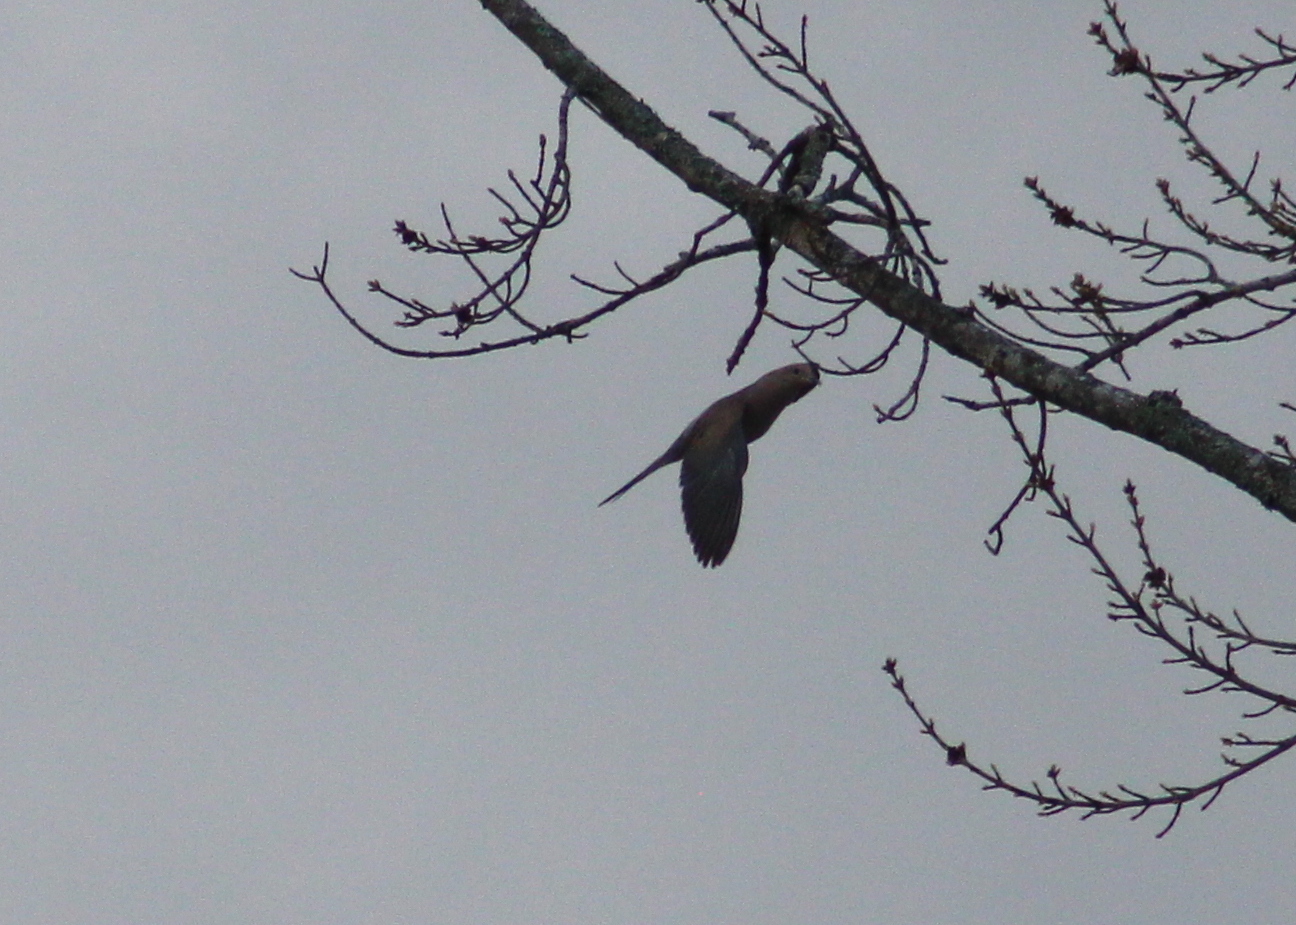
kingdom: Animalia
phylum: Chordata
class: Aves
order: Columbiformes
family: Columbidae
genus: Zenaida
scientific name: Zenaida macroura
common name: Mourning dove
